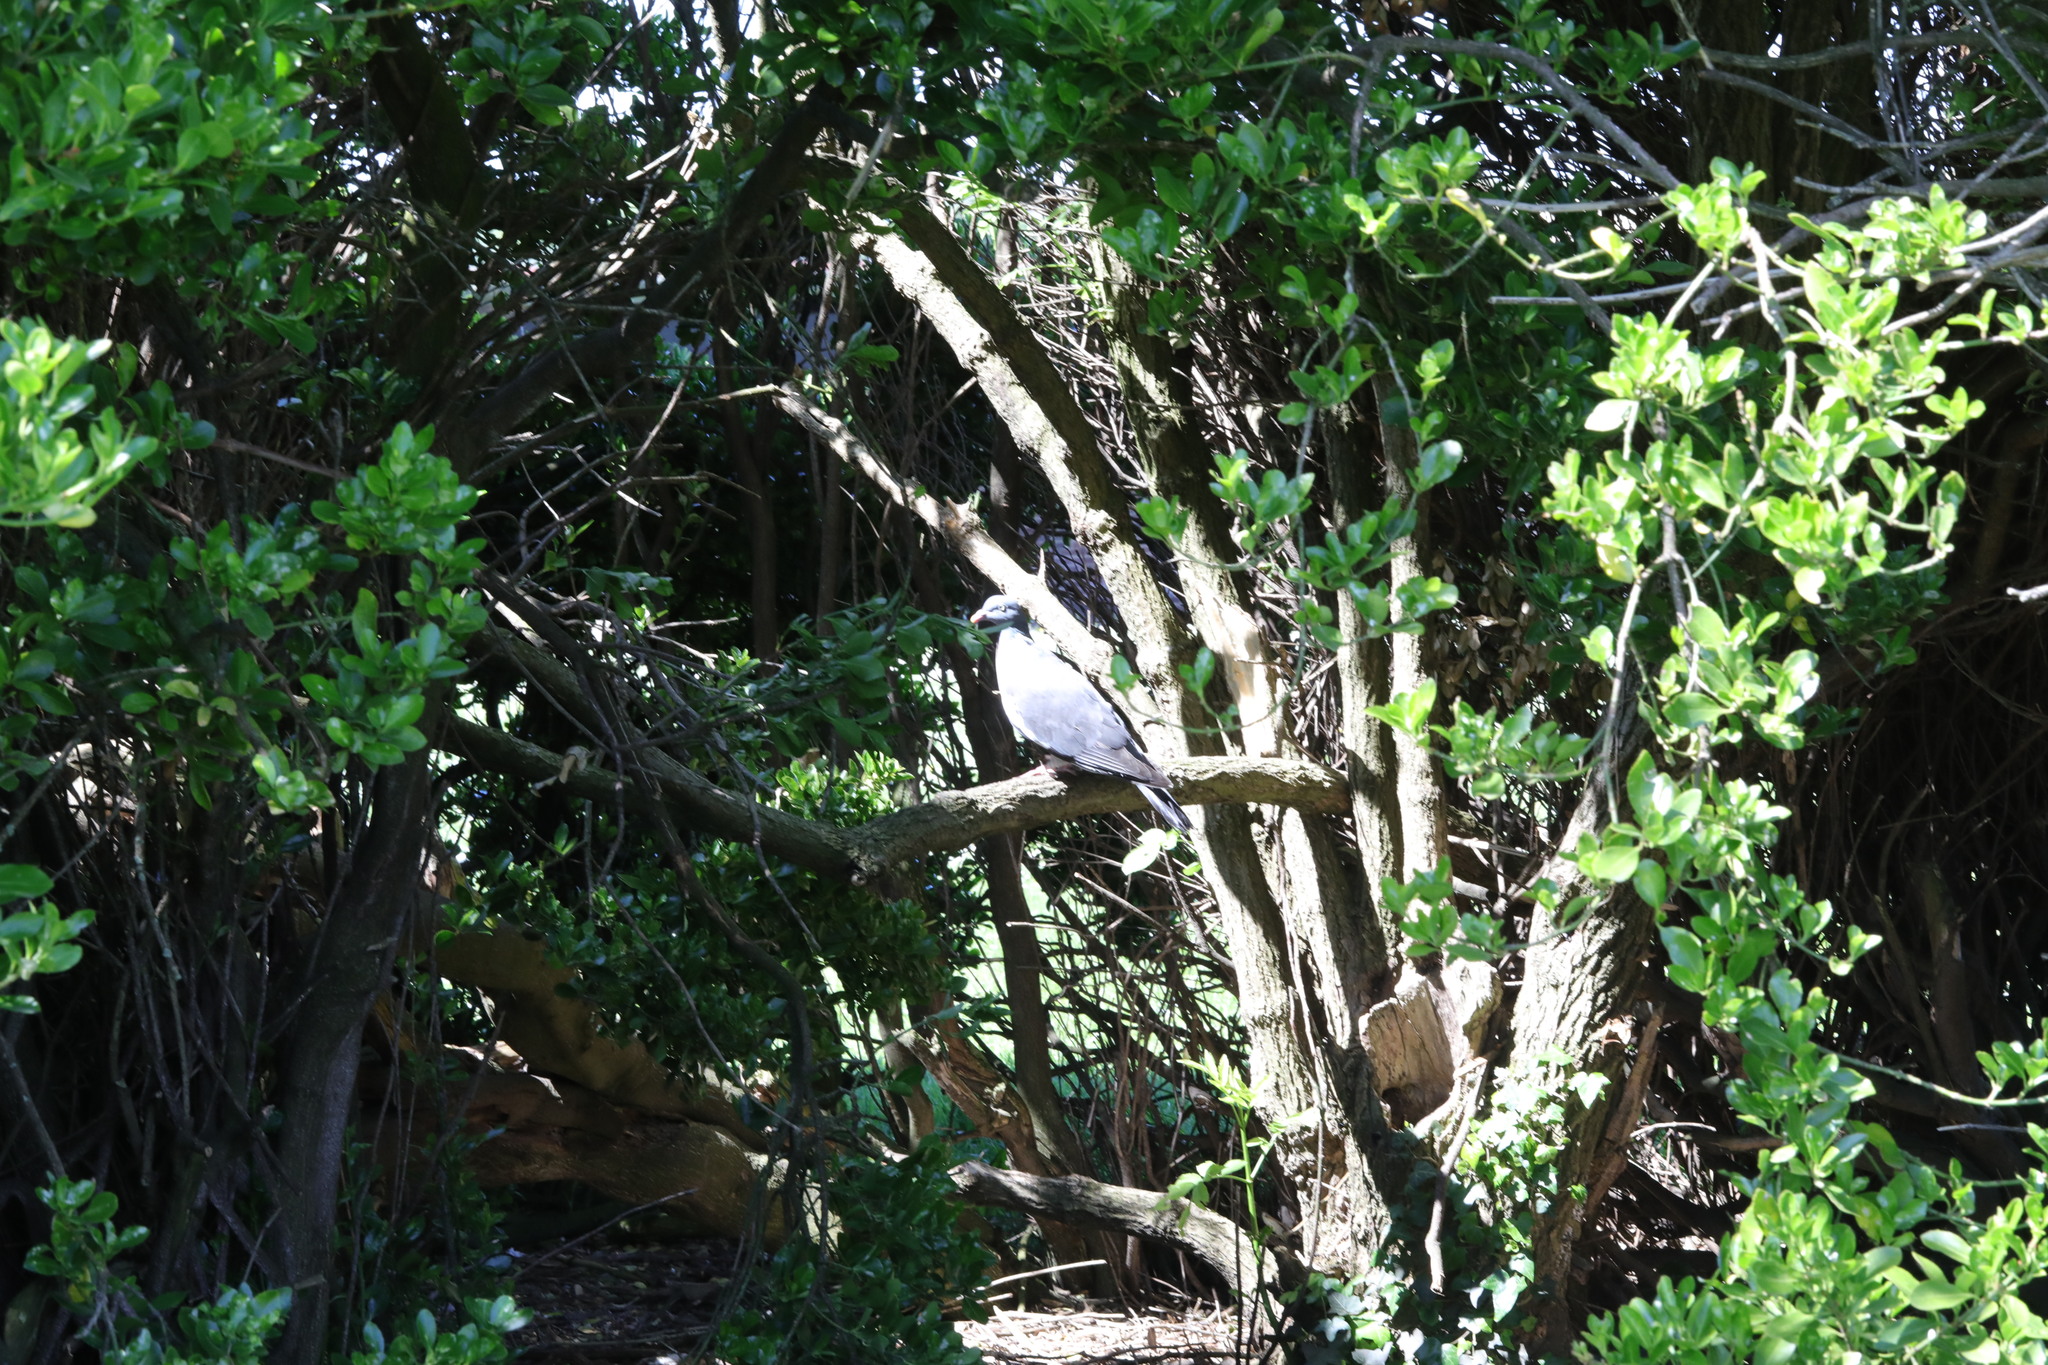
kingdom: Animalia
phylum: Chordata
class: Aves
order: Columbiformes
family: Columbidae
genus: Columba
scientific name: Columba palumbus
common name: Common wood pigeon
